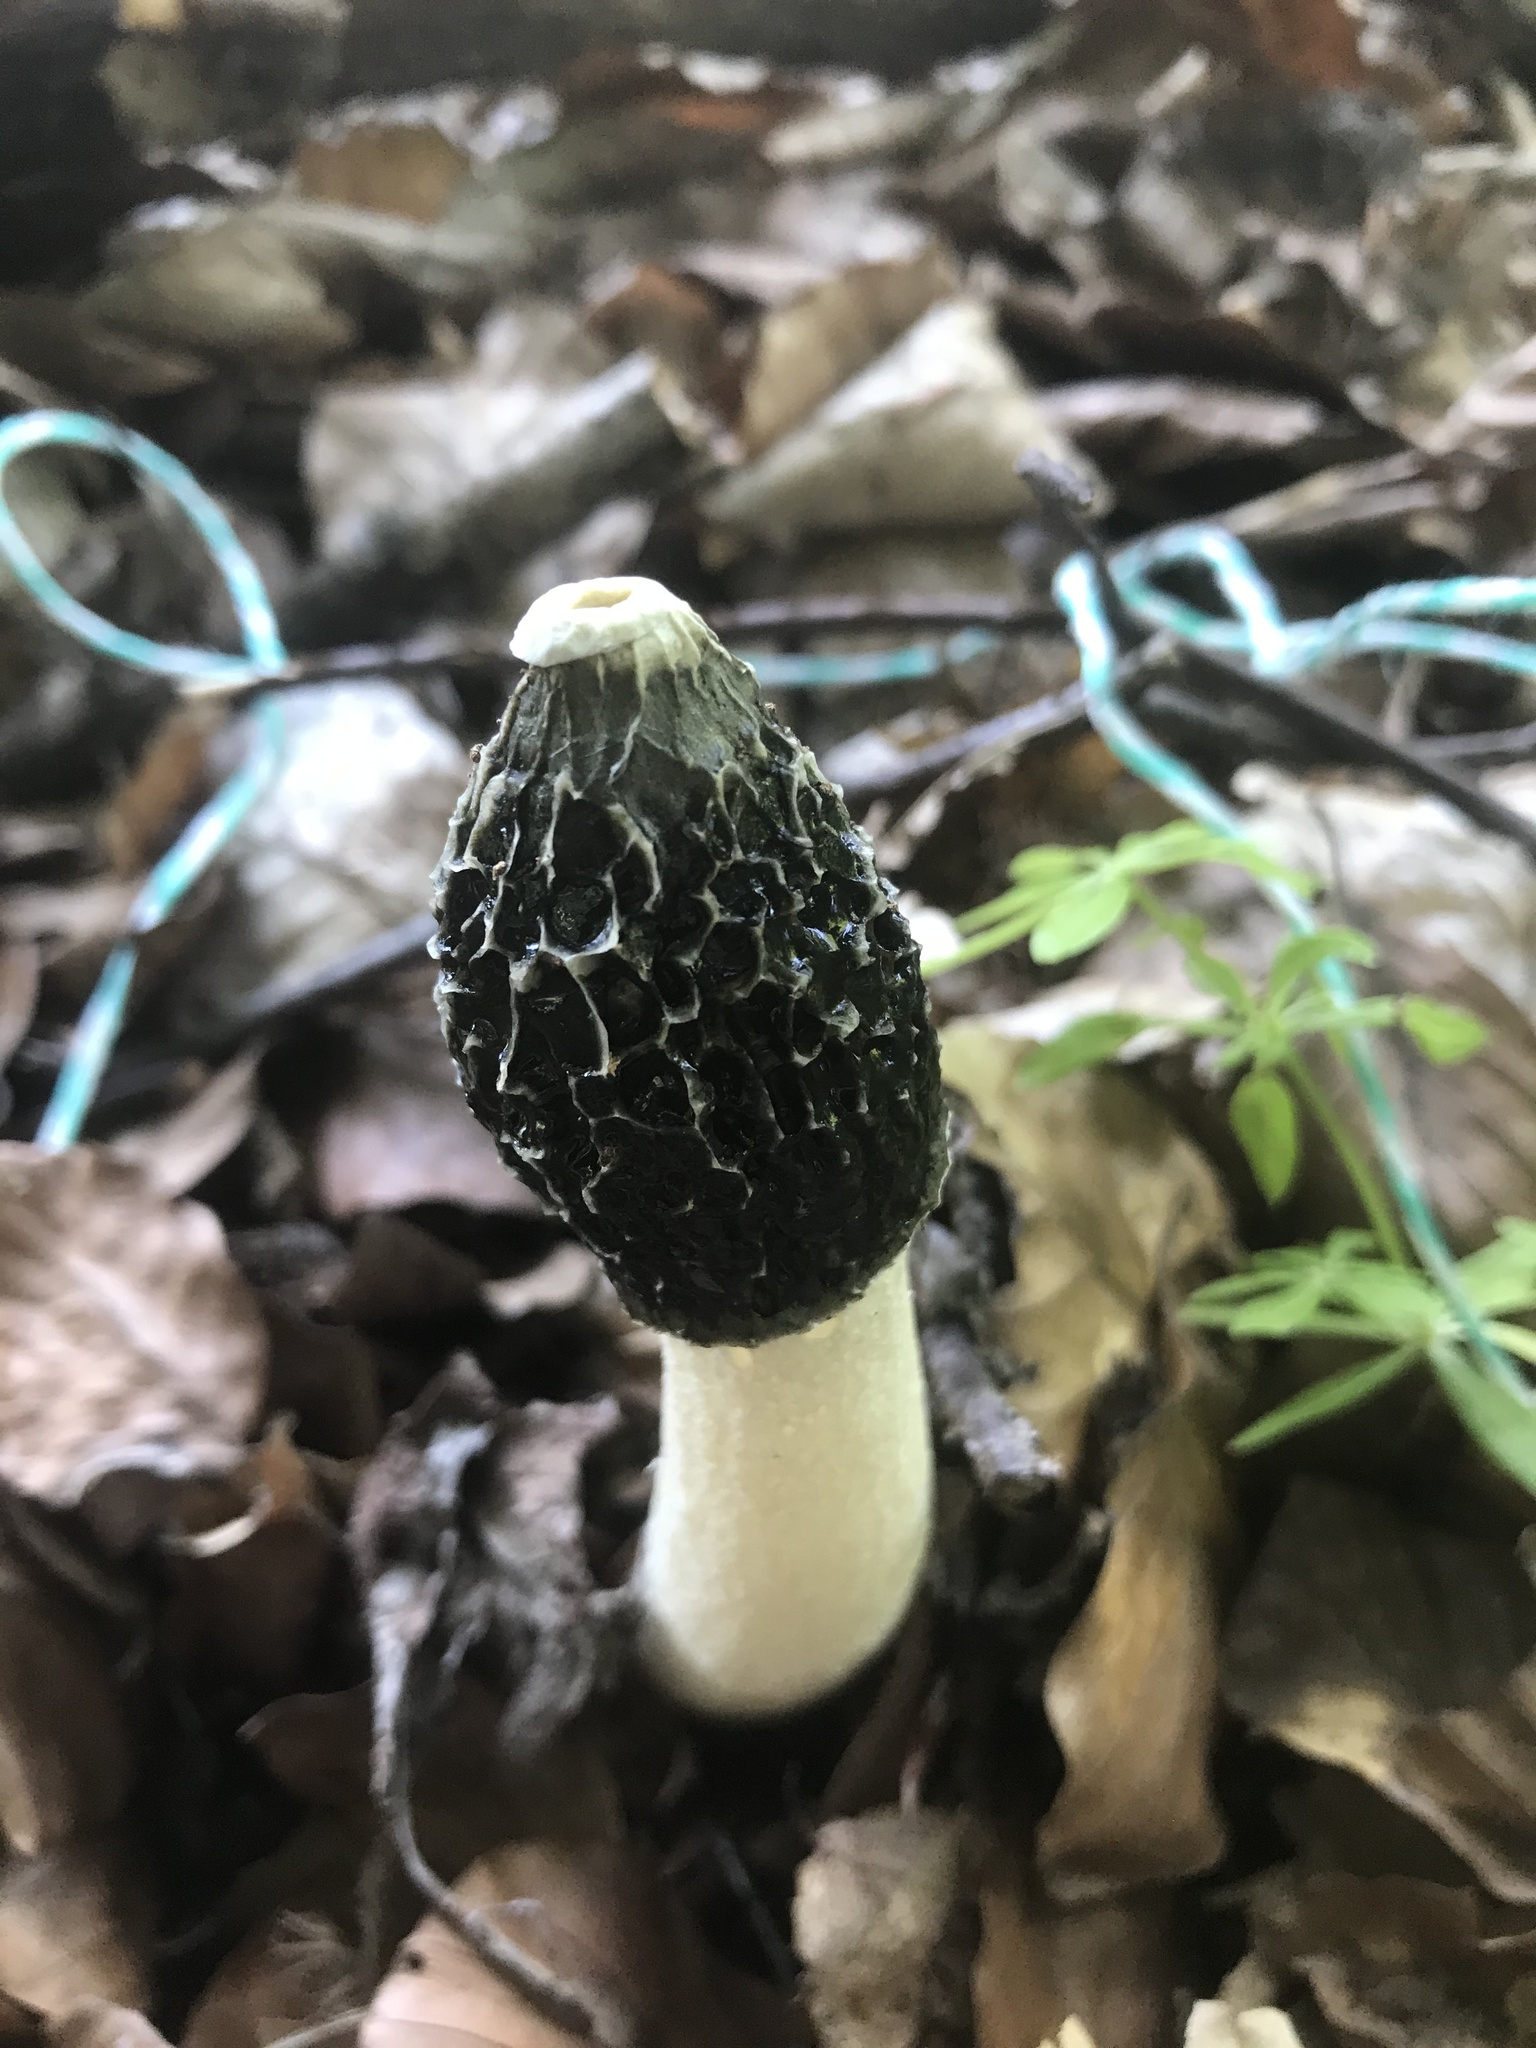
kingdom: Fungi
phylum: Basidiomycota
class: Agaricomycetes
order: Phallales
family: Phallaceae
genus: Phallus
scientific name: Phallus impudicus
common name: Common stinkhorn
